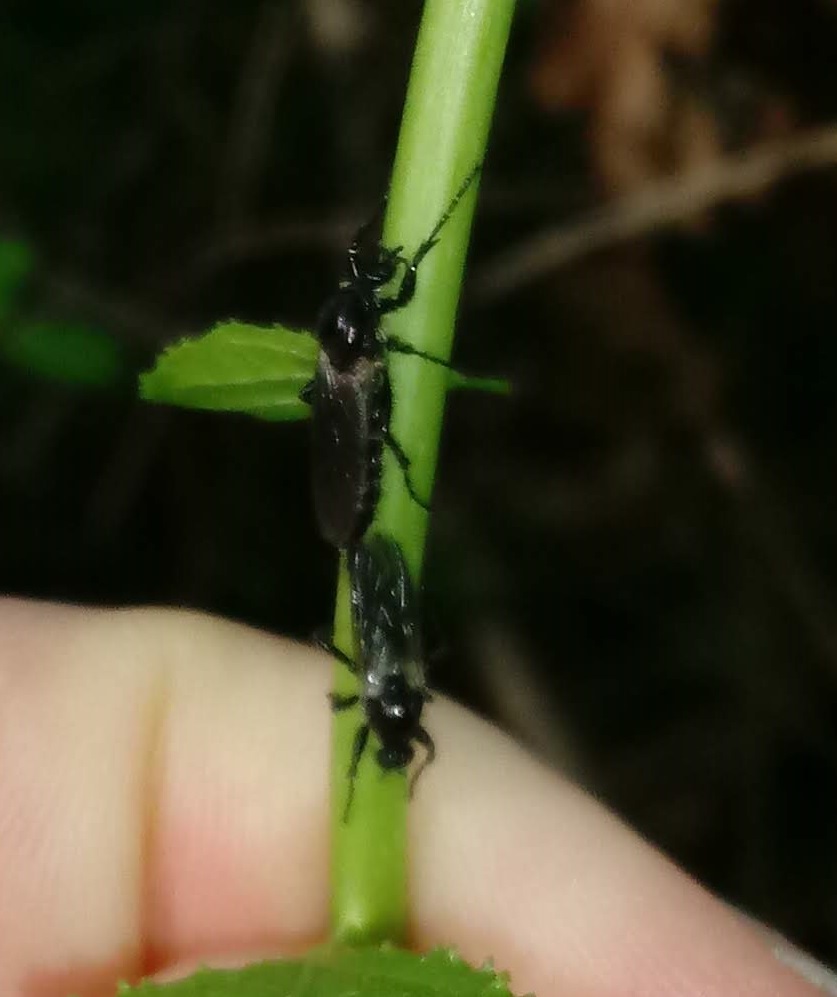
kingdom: Animalia
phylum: Arthropoda
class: Insecta
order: Diptera
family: Bibionidae
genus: Bibio
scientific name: Bibio albipennis
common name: White-winged march fly
